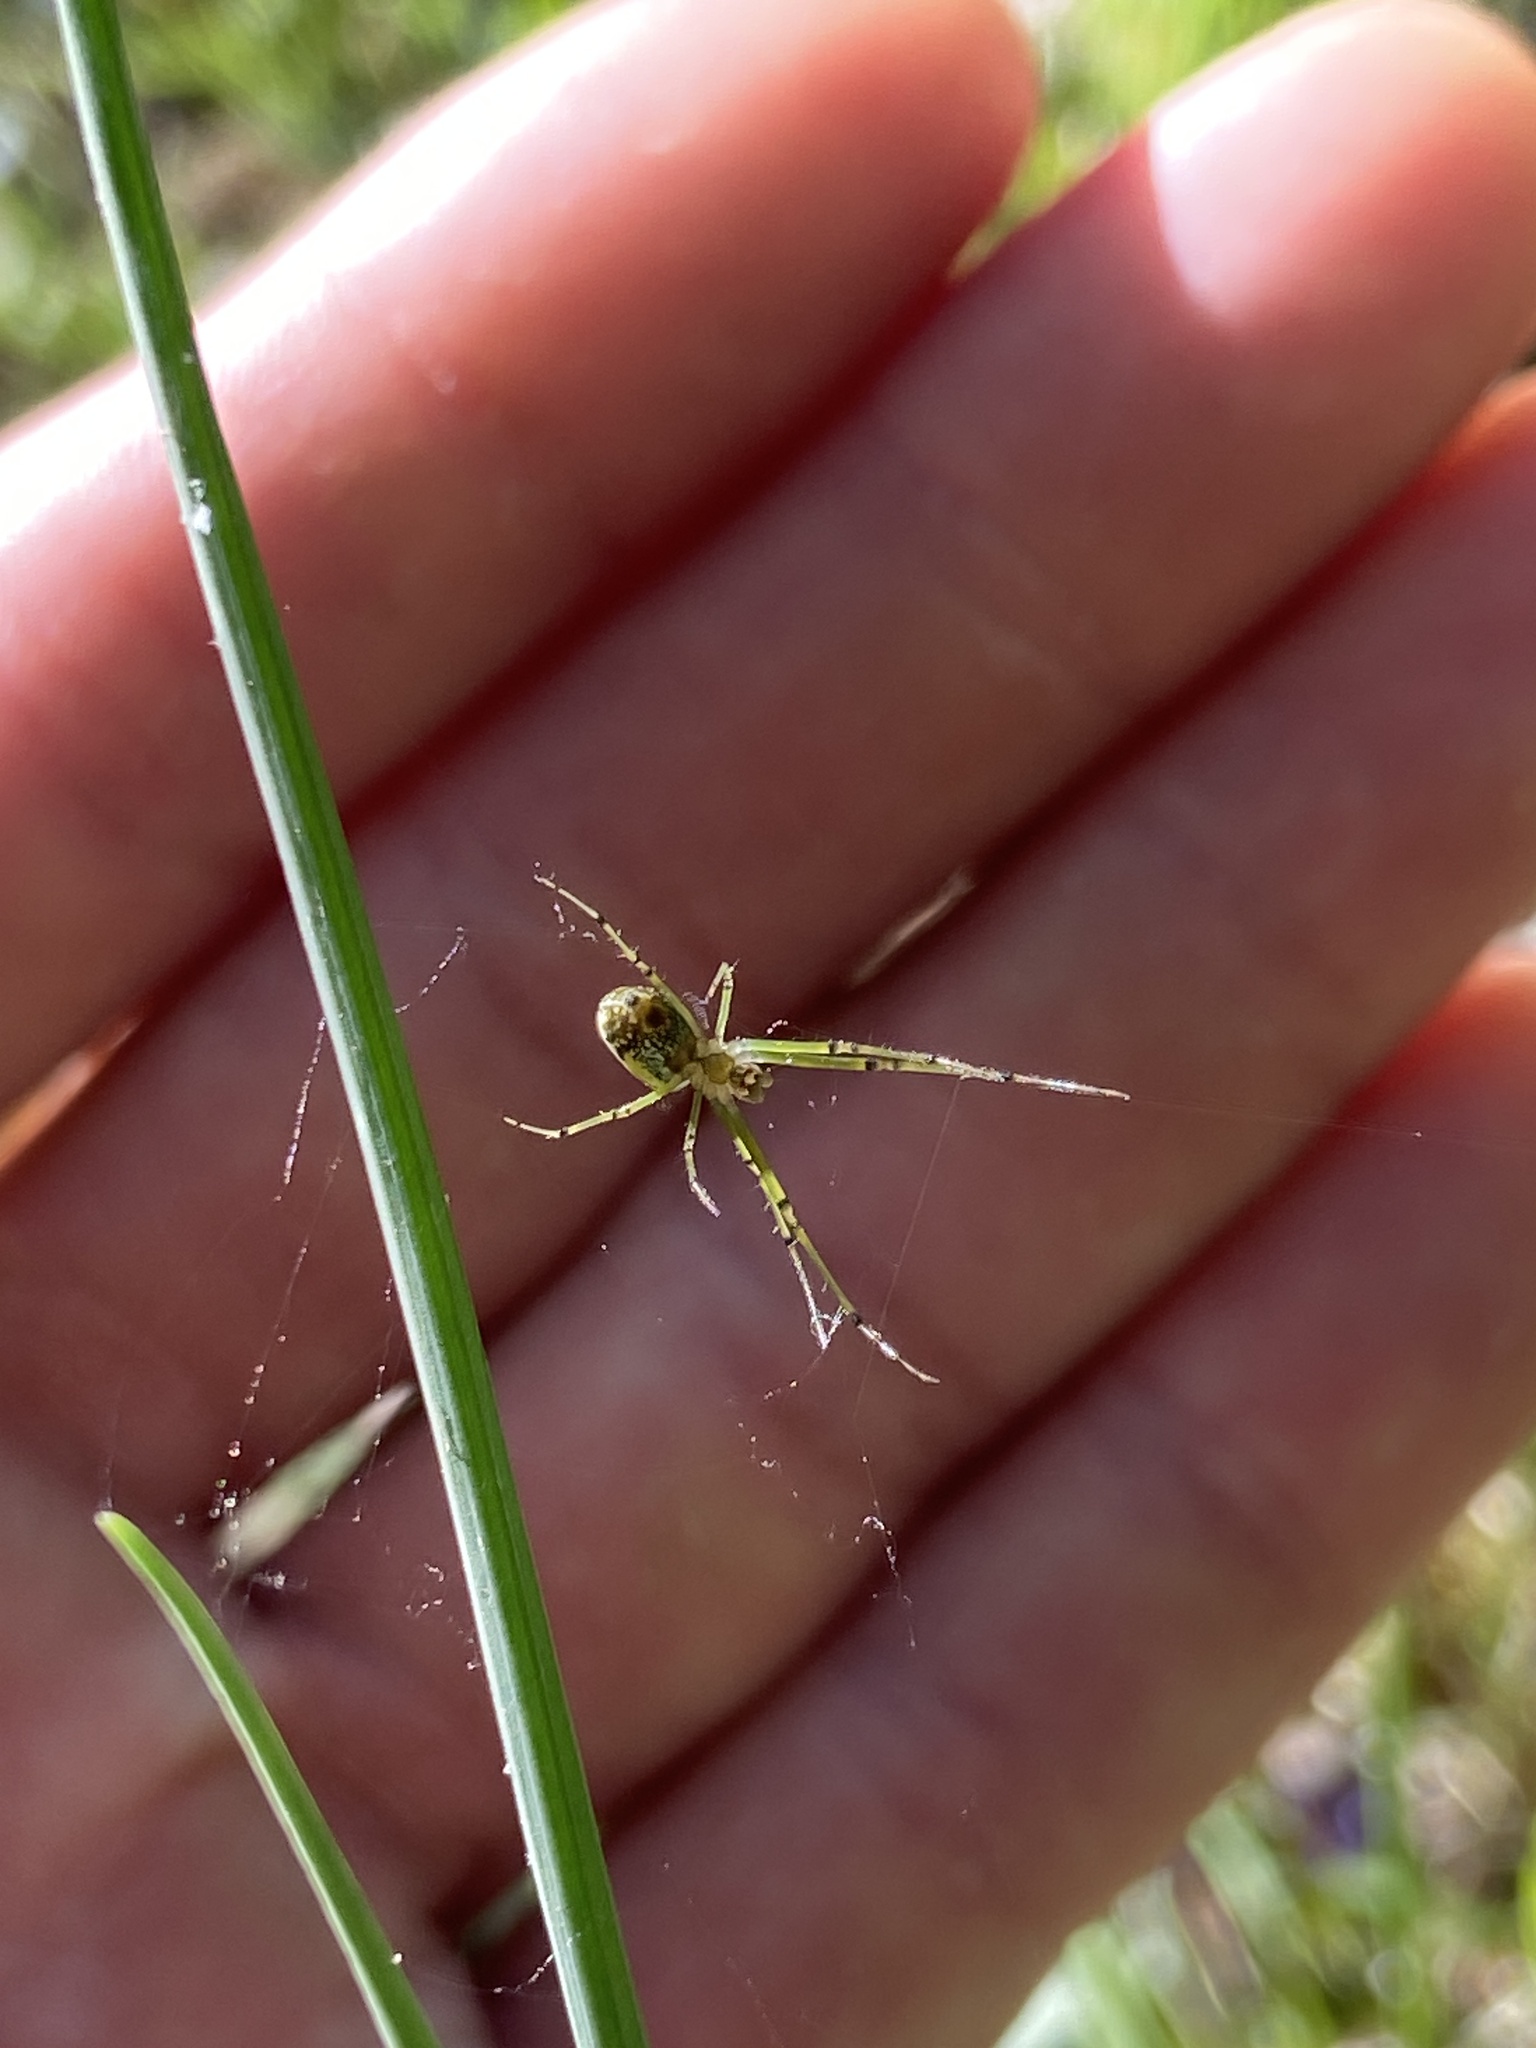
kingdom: Animalia
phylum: Arthropoda
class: Arachnida
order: Araneae
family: Tetragnathidae
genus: Leucauge
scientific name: Leucauge venusta
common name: Longjawed orb weavers
